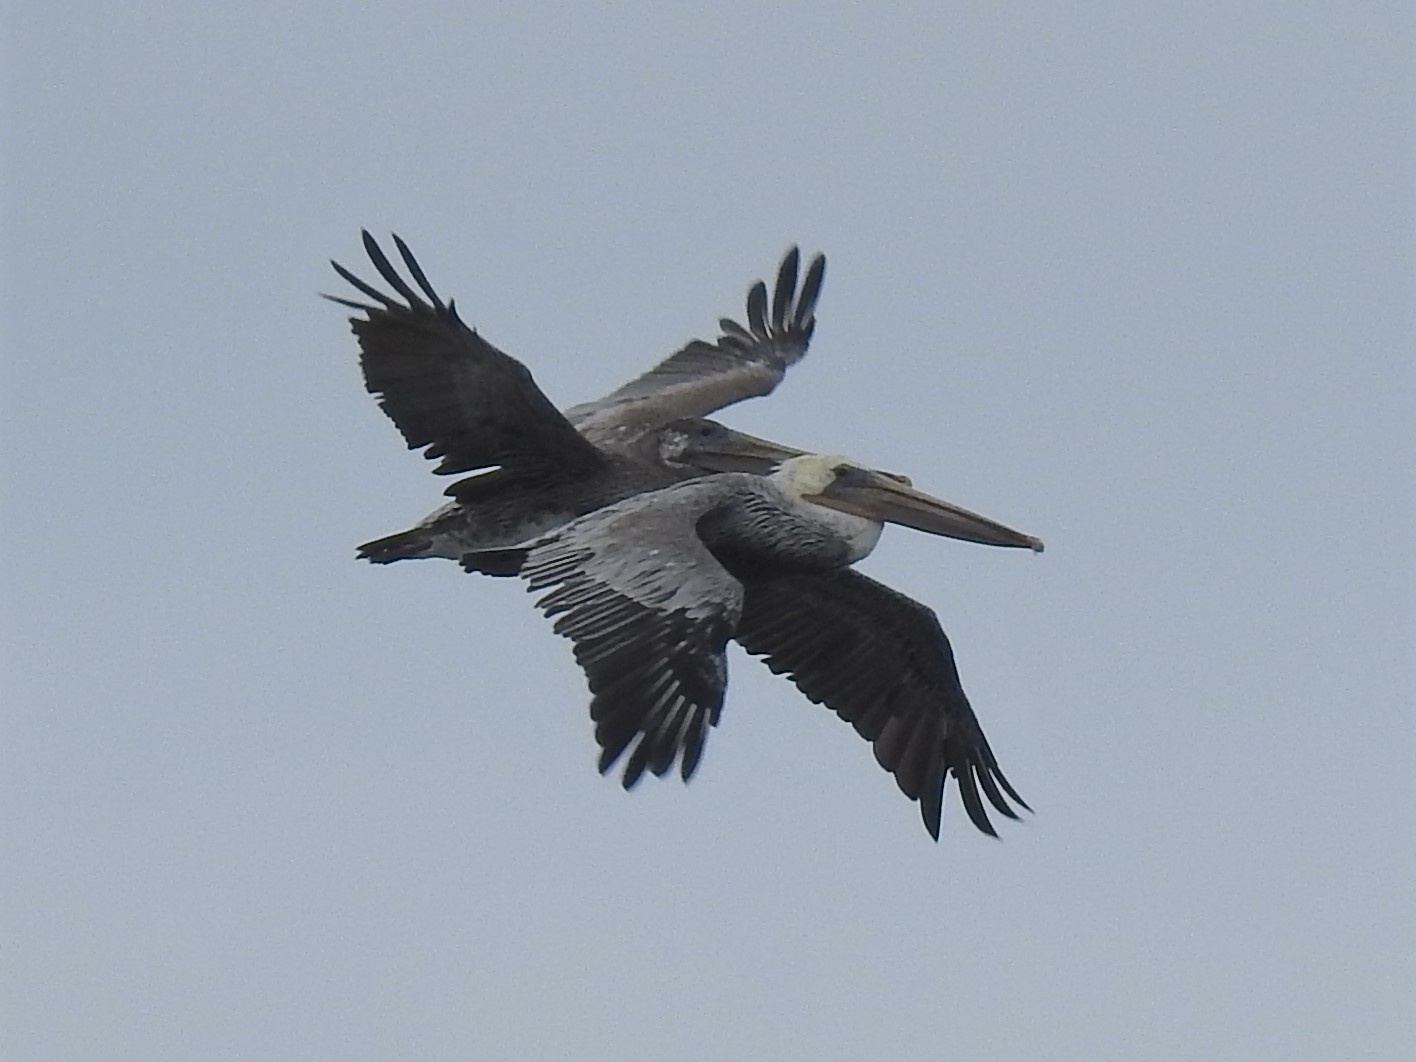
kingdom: Animalia
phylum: Chordata
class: Aves
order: Pelecaniformes
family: Pelecanidae
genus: Pelecanus
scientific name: Pelecanus occidentalis
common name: Brown pelican
